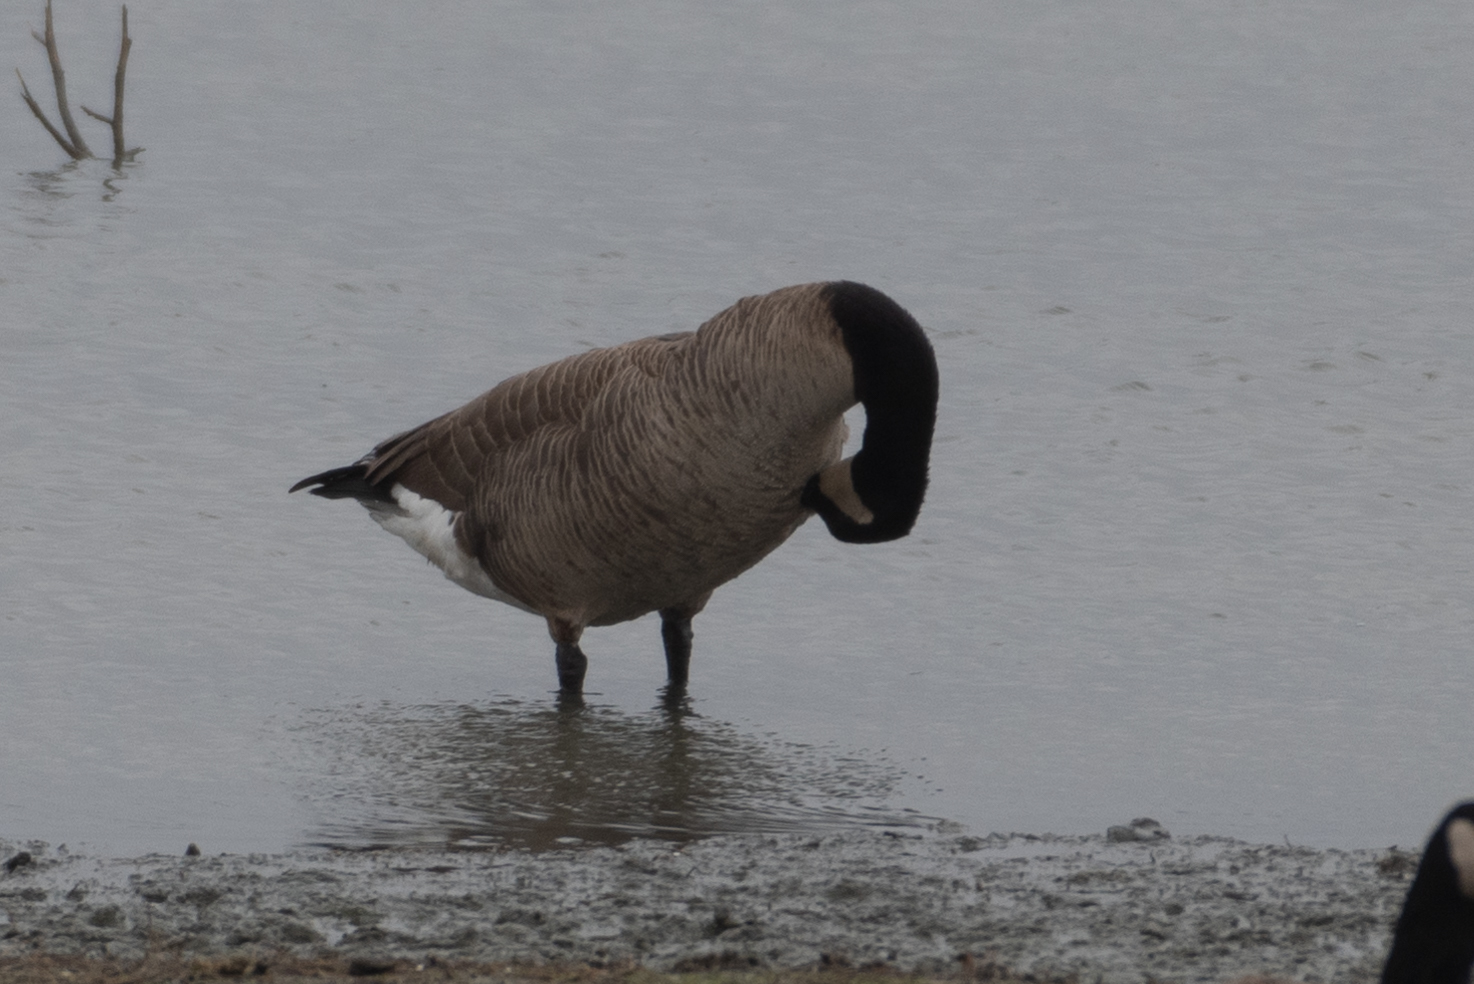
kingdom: Animalia
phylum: Chordata
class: Aves
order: Anseriformes
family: Anatidae
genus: Branta
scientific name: Branta canadensis
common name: Canada goose
